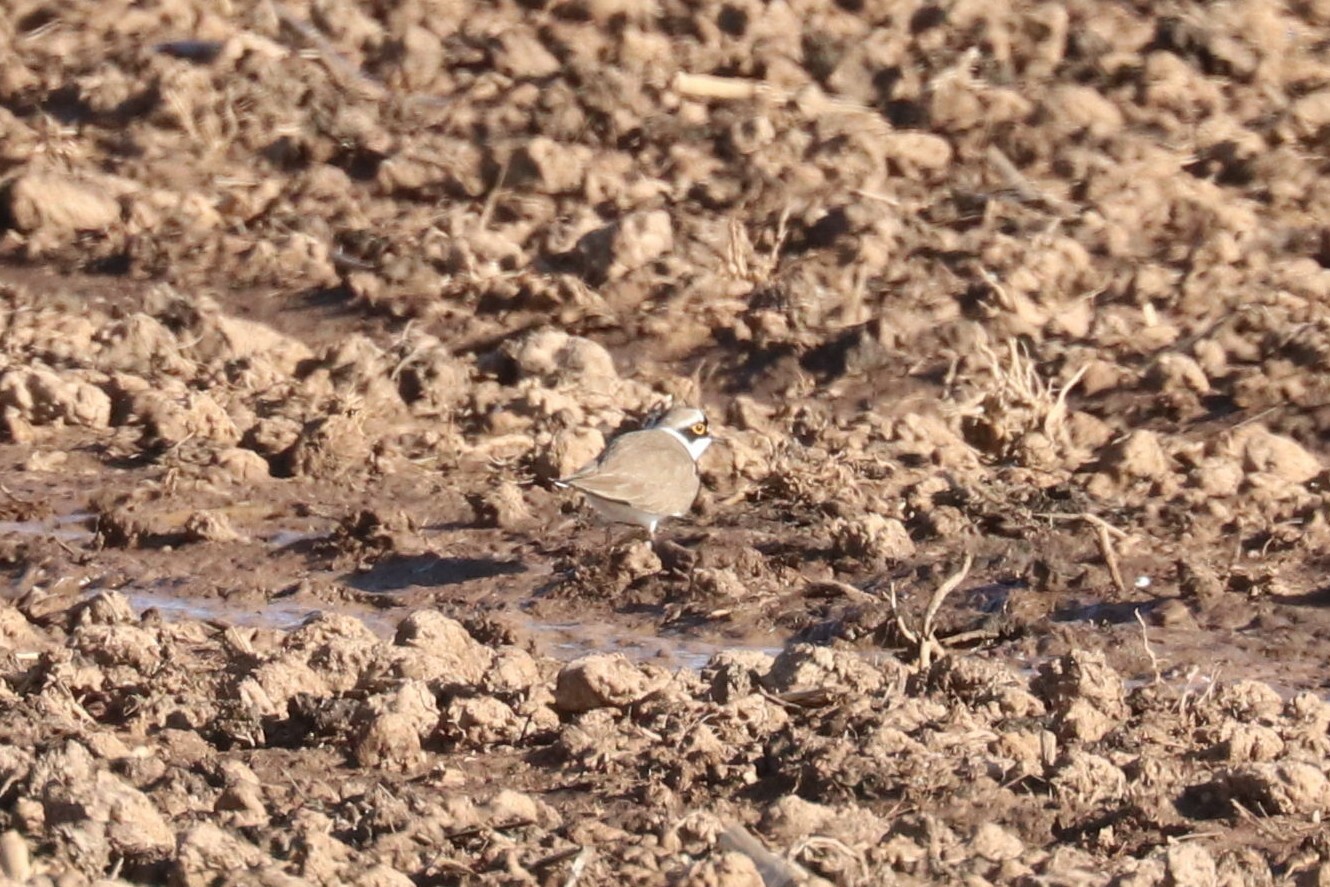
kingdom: Animalia
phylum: Chordata
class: Aves
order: Charadriiformes
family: Charadriidae
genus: Charadrius
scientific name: Charadrius dubius
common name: Little ringed plover
